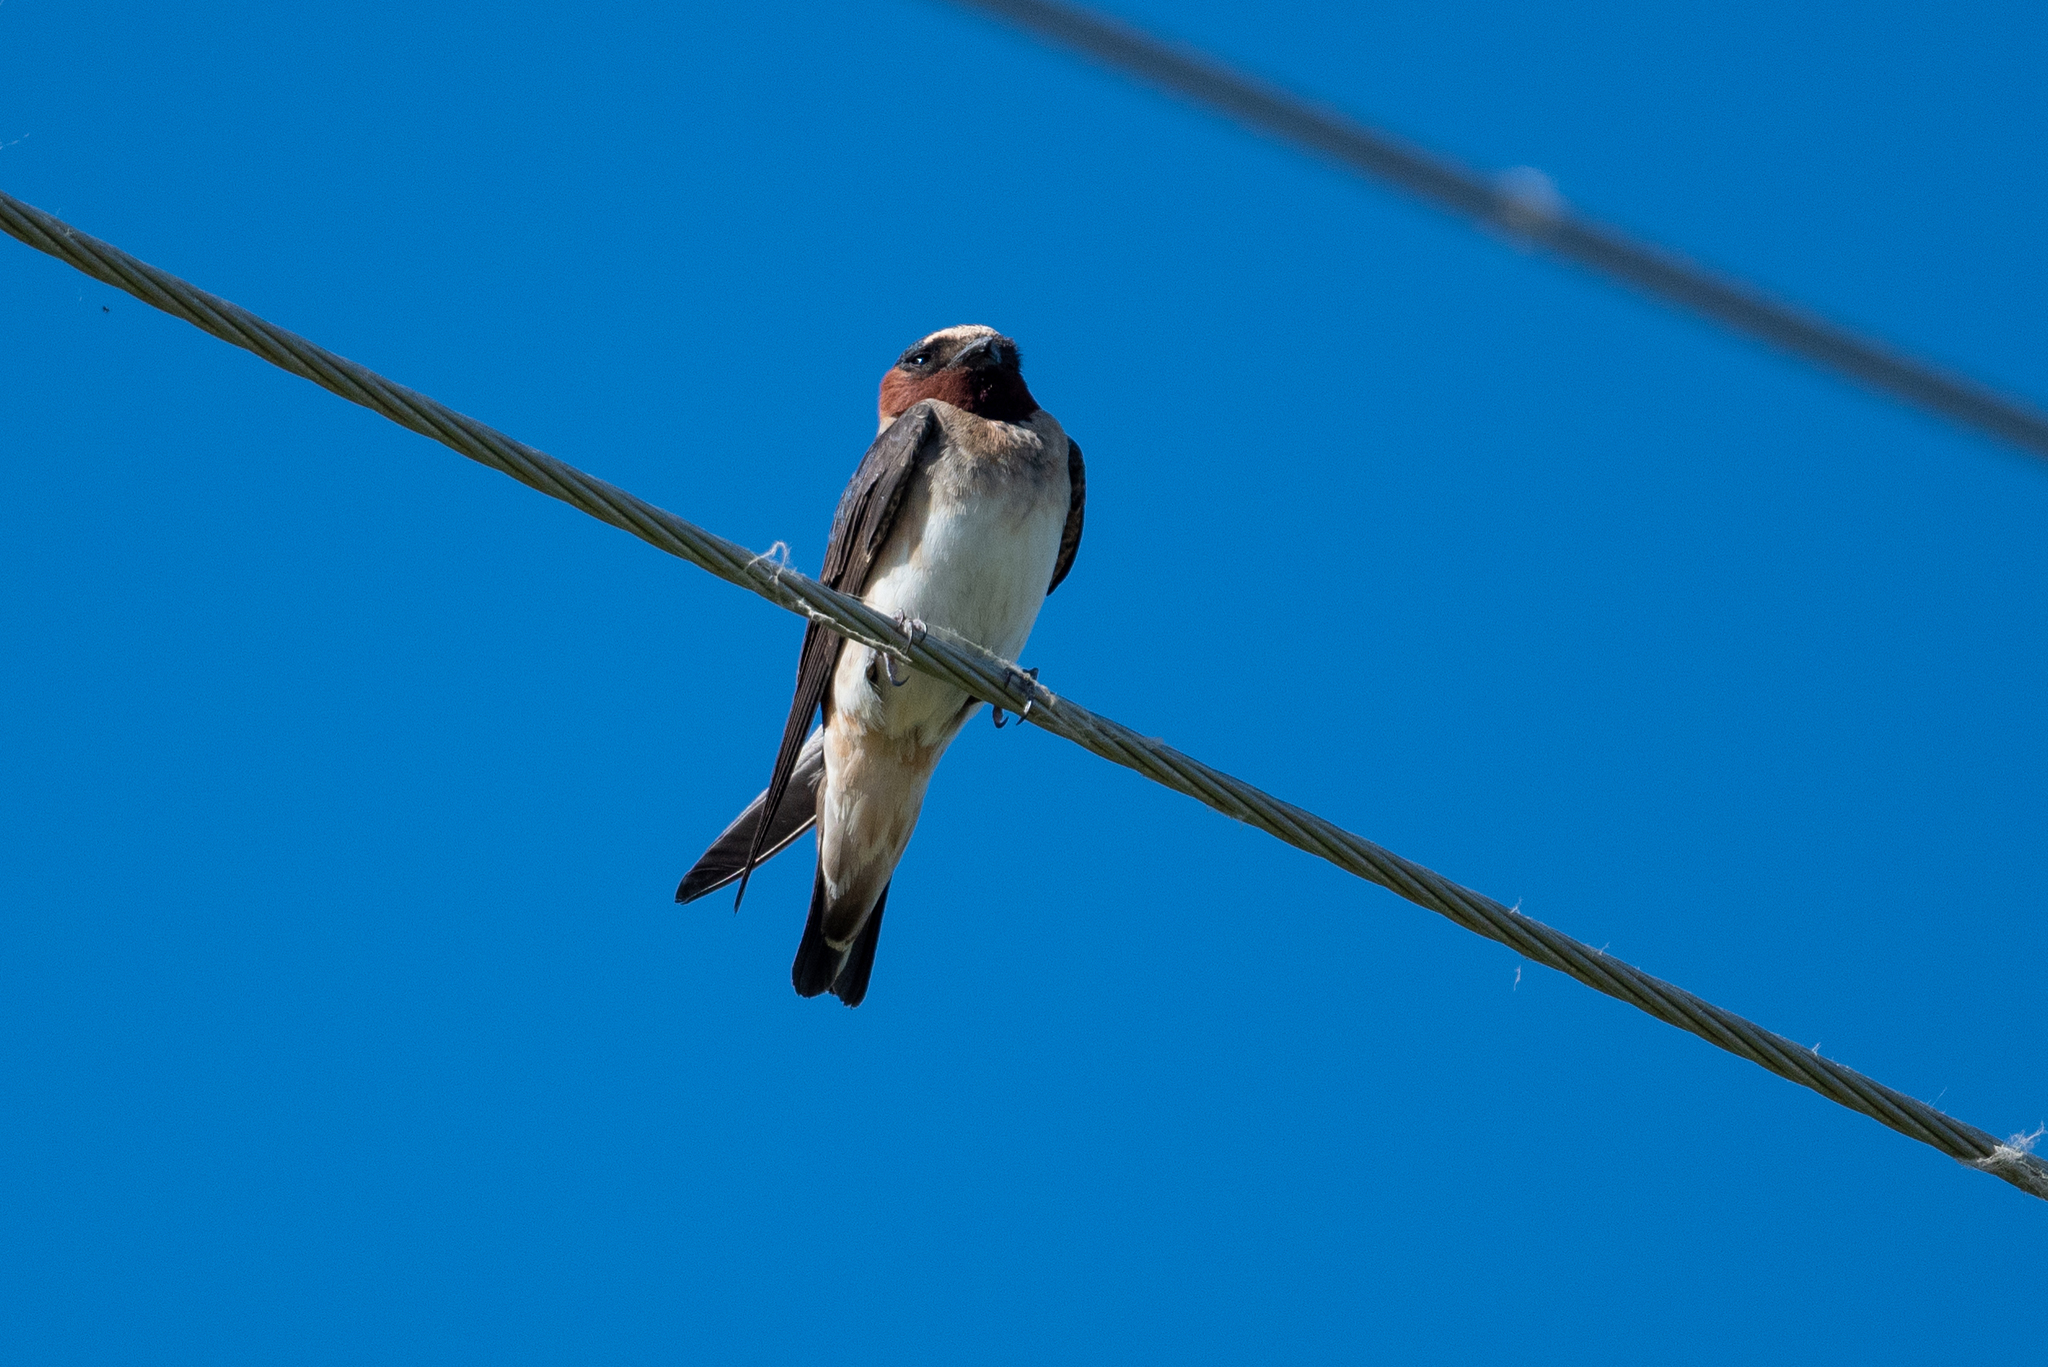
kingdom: Animalia
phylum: Chordata
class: Aves
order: Passeriformes
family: Hirundinidae
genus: Petrochelidon
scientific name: Petrochelidon pyrrhonota
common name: American cliff swallow
